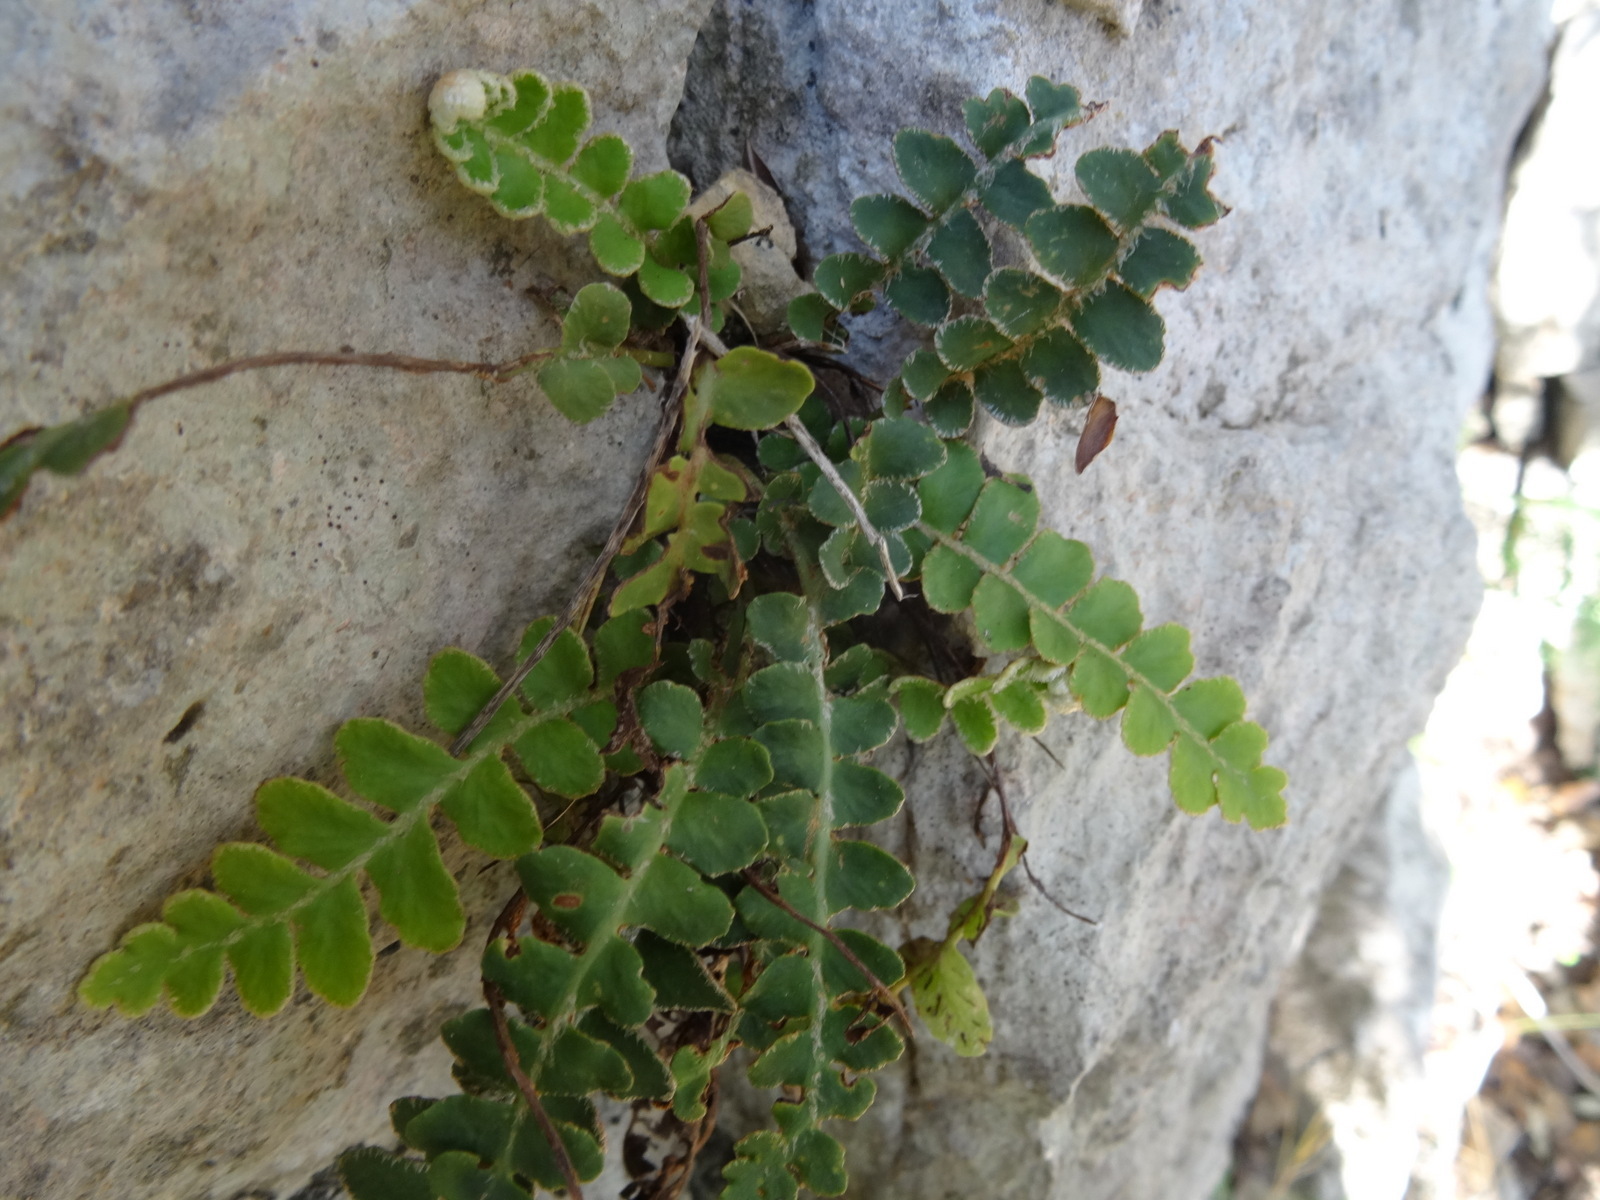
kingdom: Plantae
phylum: Tracheophyta
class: Polypodiopsida
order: Polypodiales
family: Aspleniaceae
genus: Asplenium
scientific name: Asplenium ceterach
